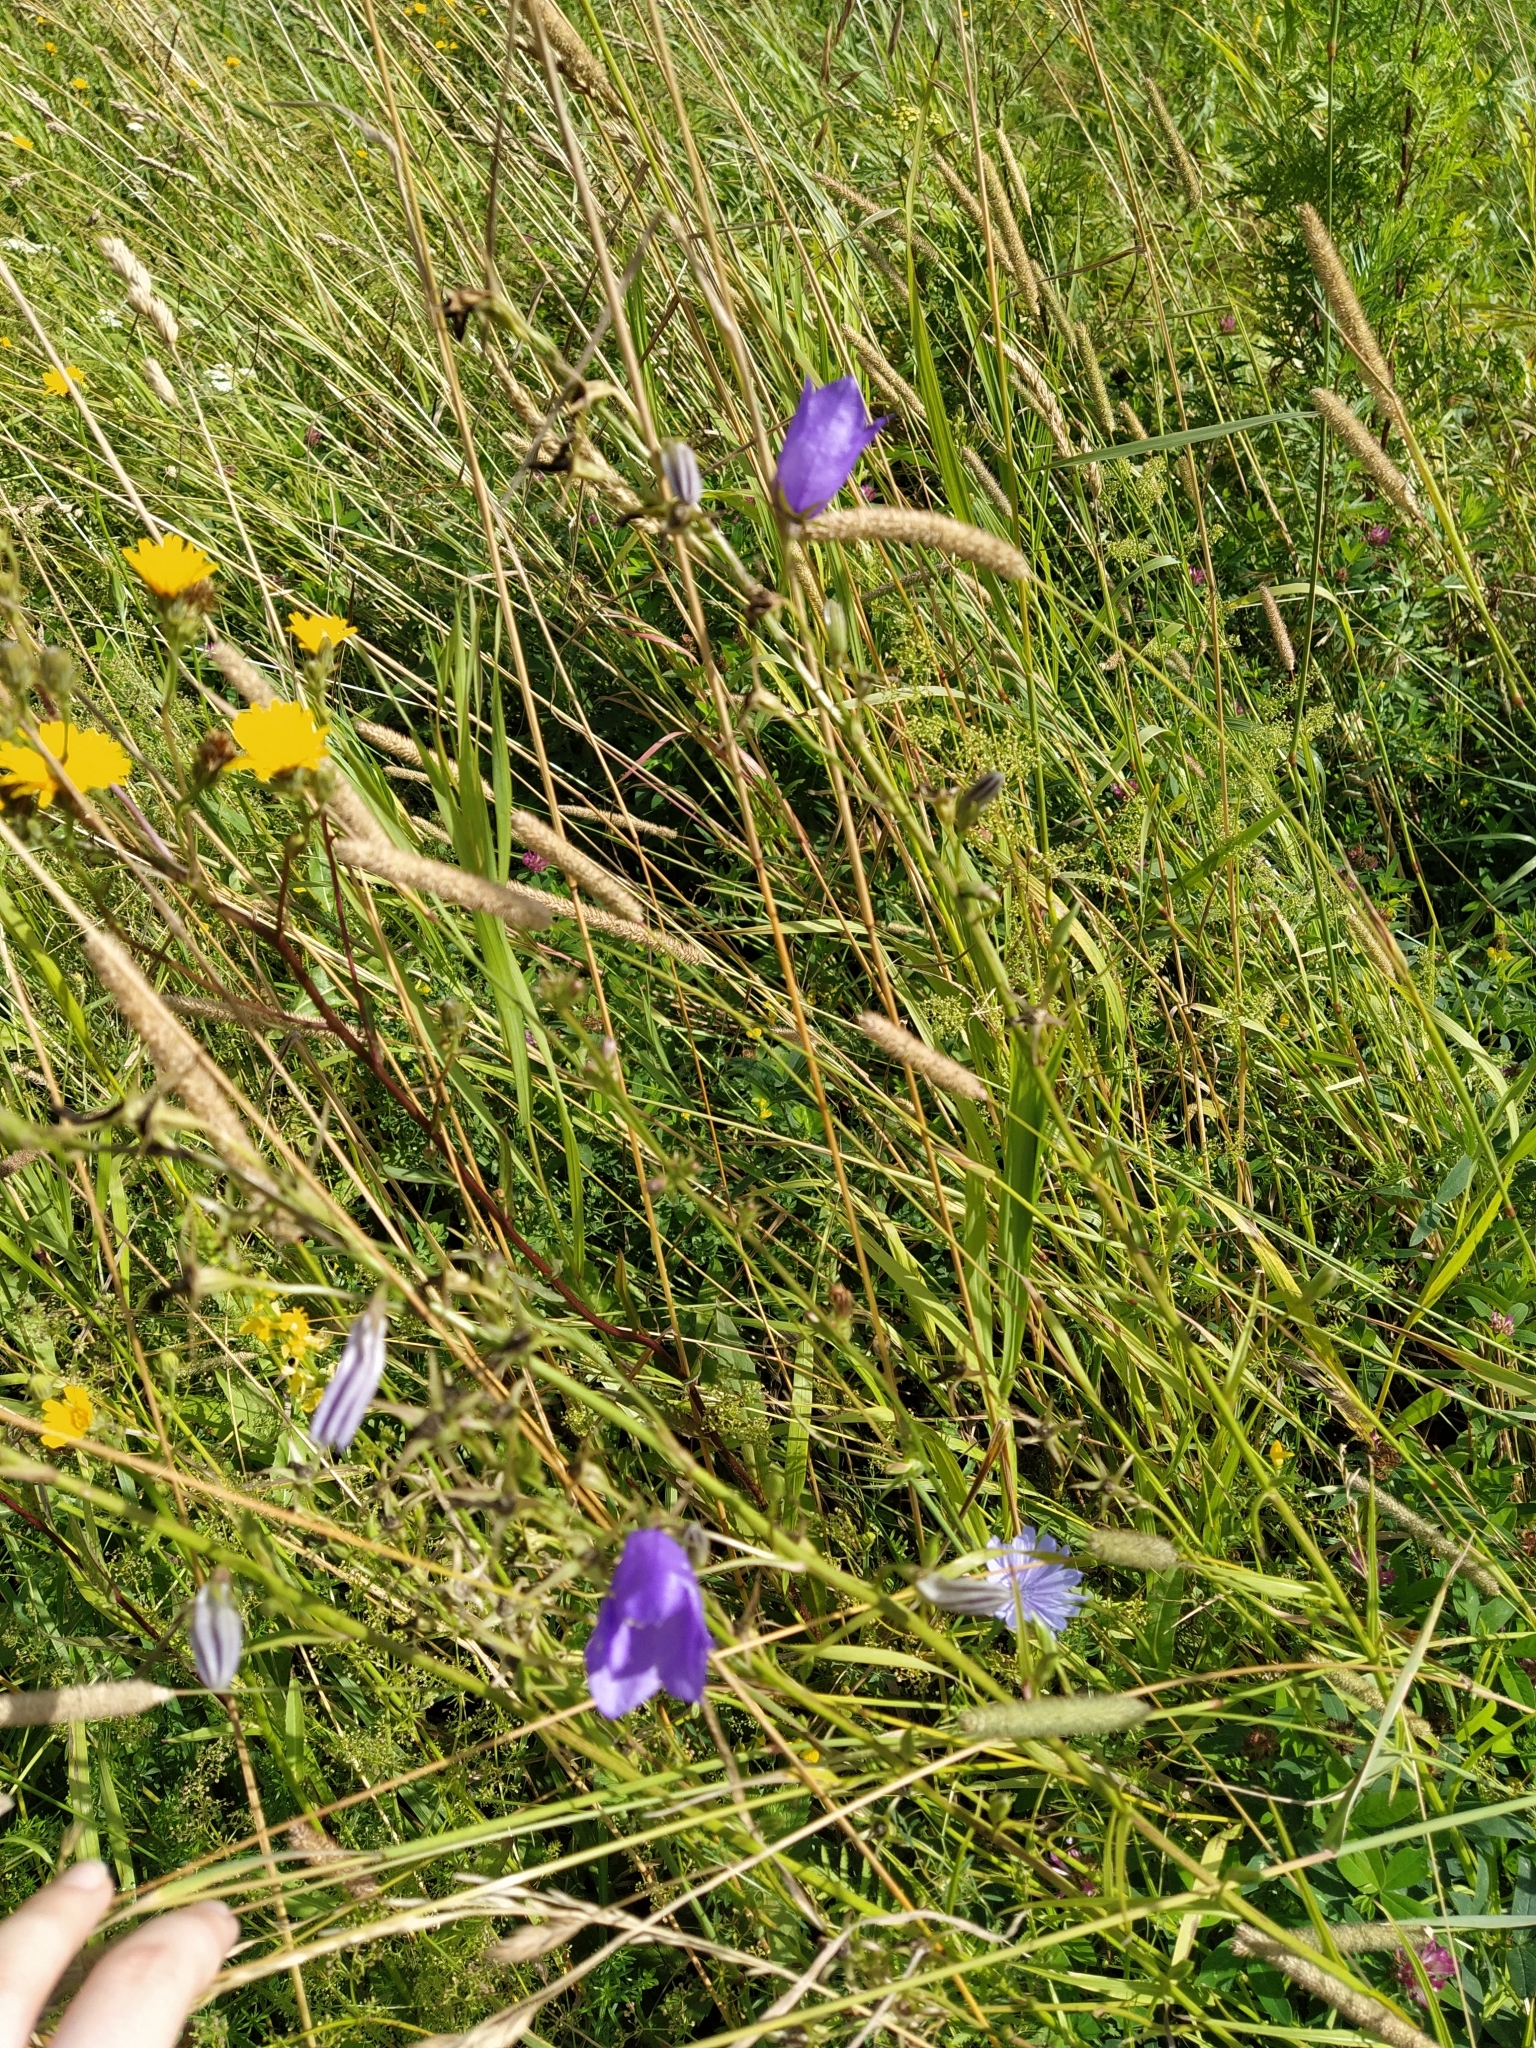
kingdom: Plantae
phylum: Tracheophyta
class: Magnoliopsida
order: Asterales
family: Campanulaceae
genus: Campanula
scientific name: Campanula rotundifolia
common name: Harebell
